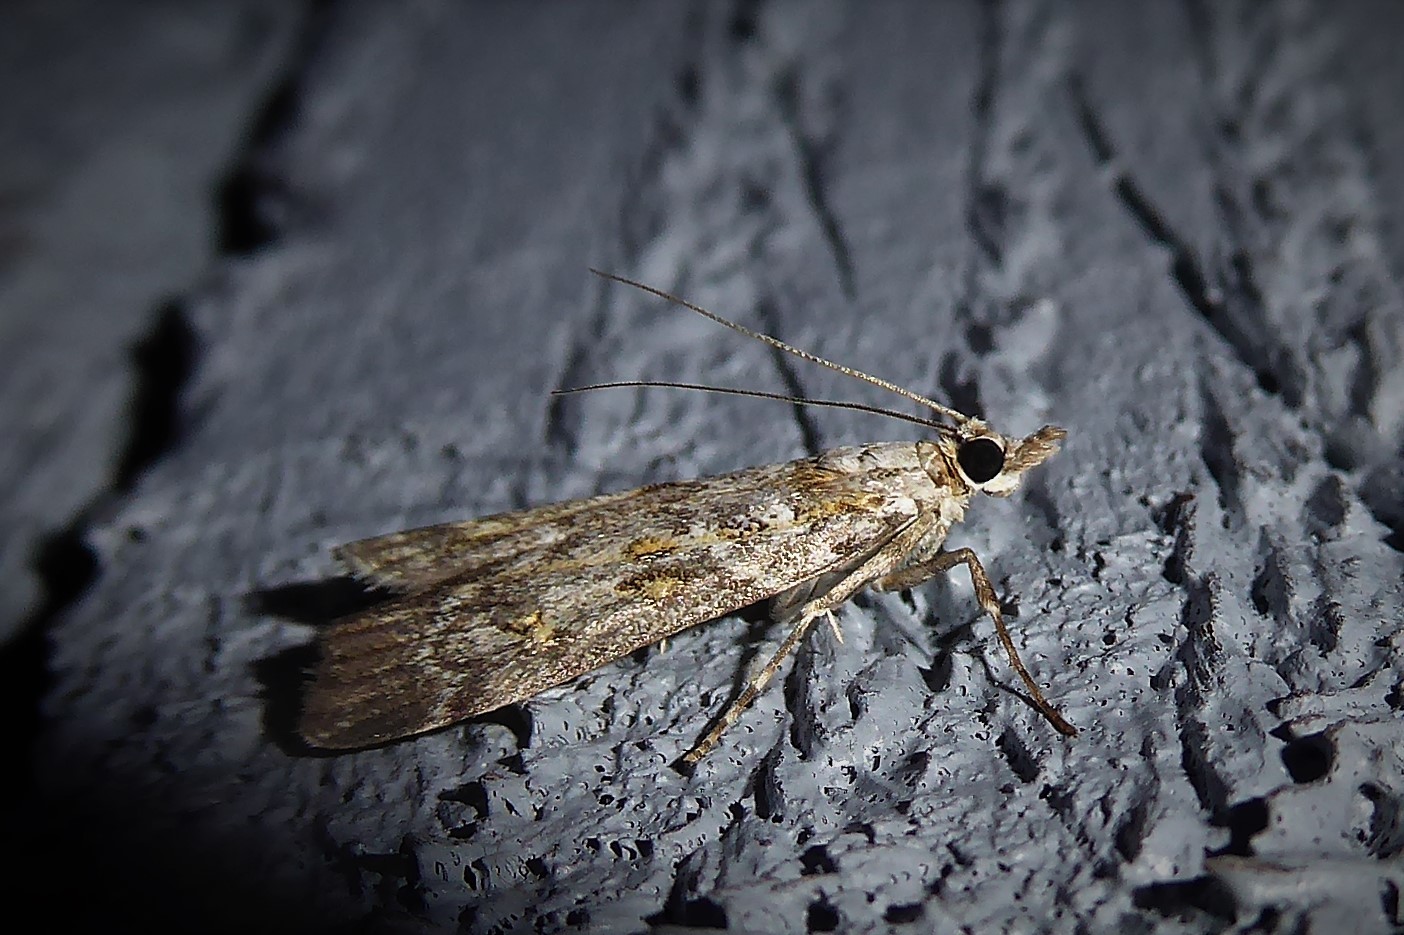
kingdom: Animalia
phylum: Arthropoda
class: Insecta
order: Lepidoptera
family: Crambidae
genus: Scoparia
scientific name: Scoparia tetracycla
